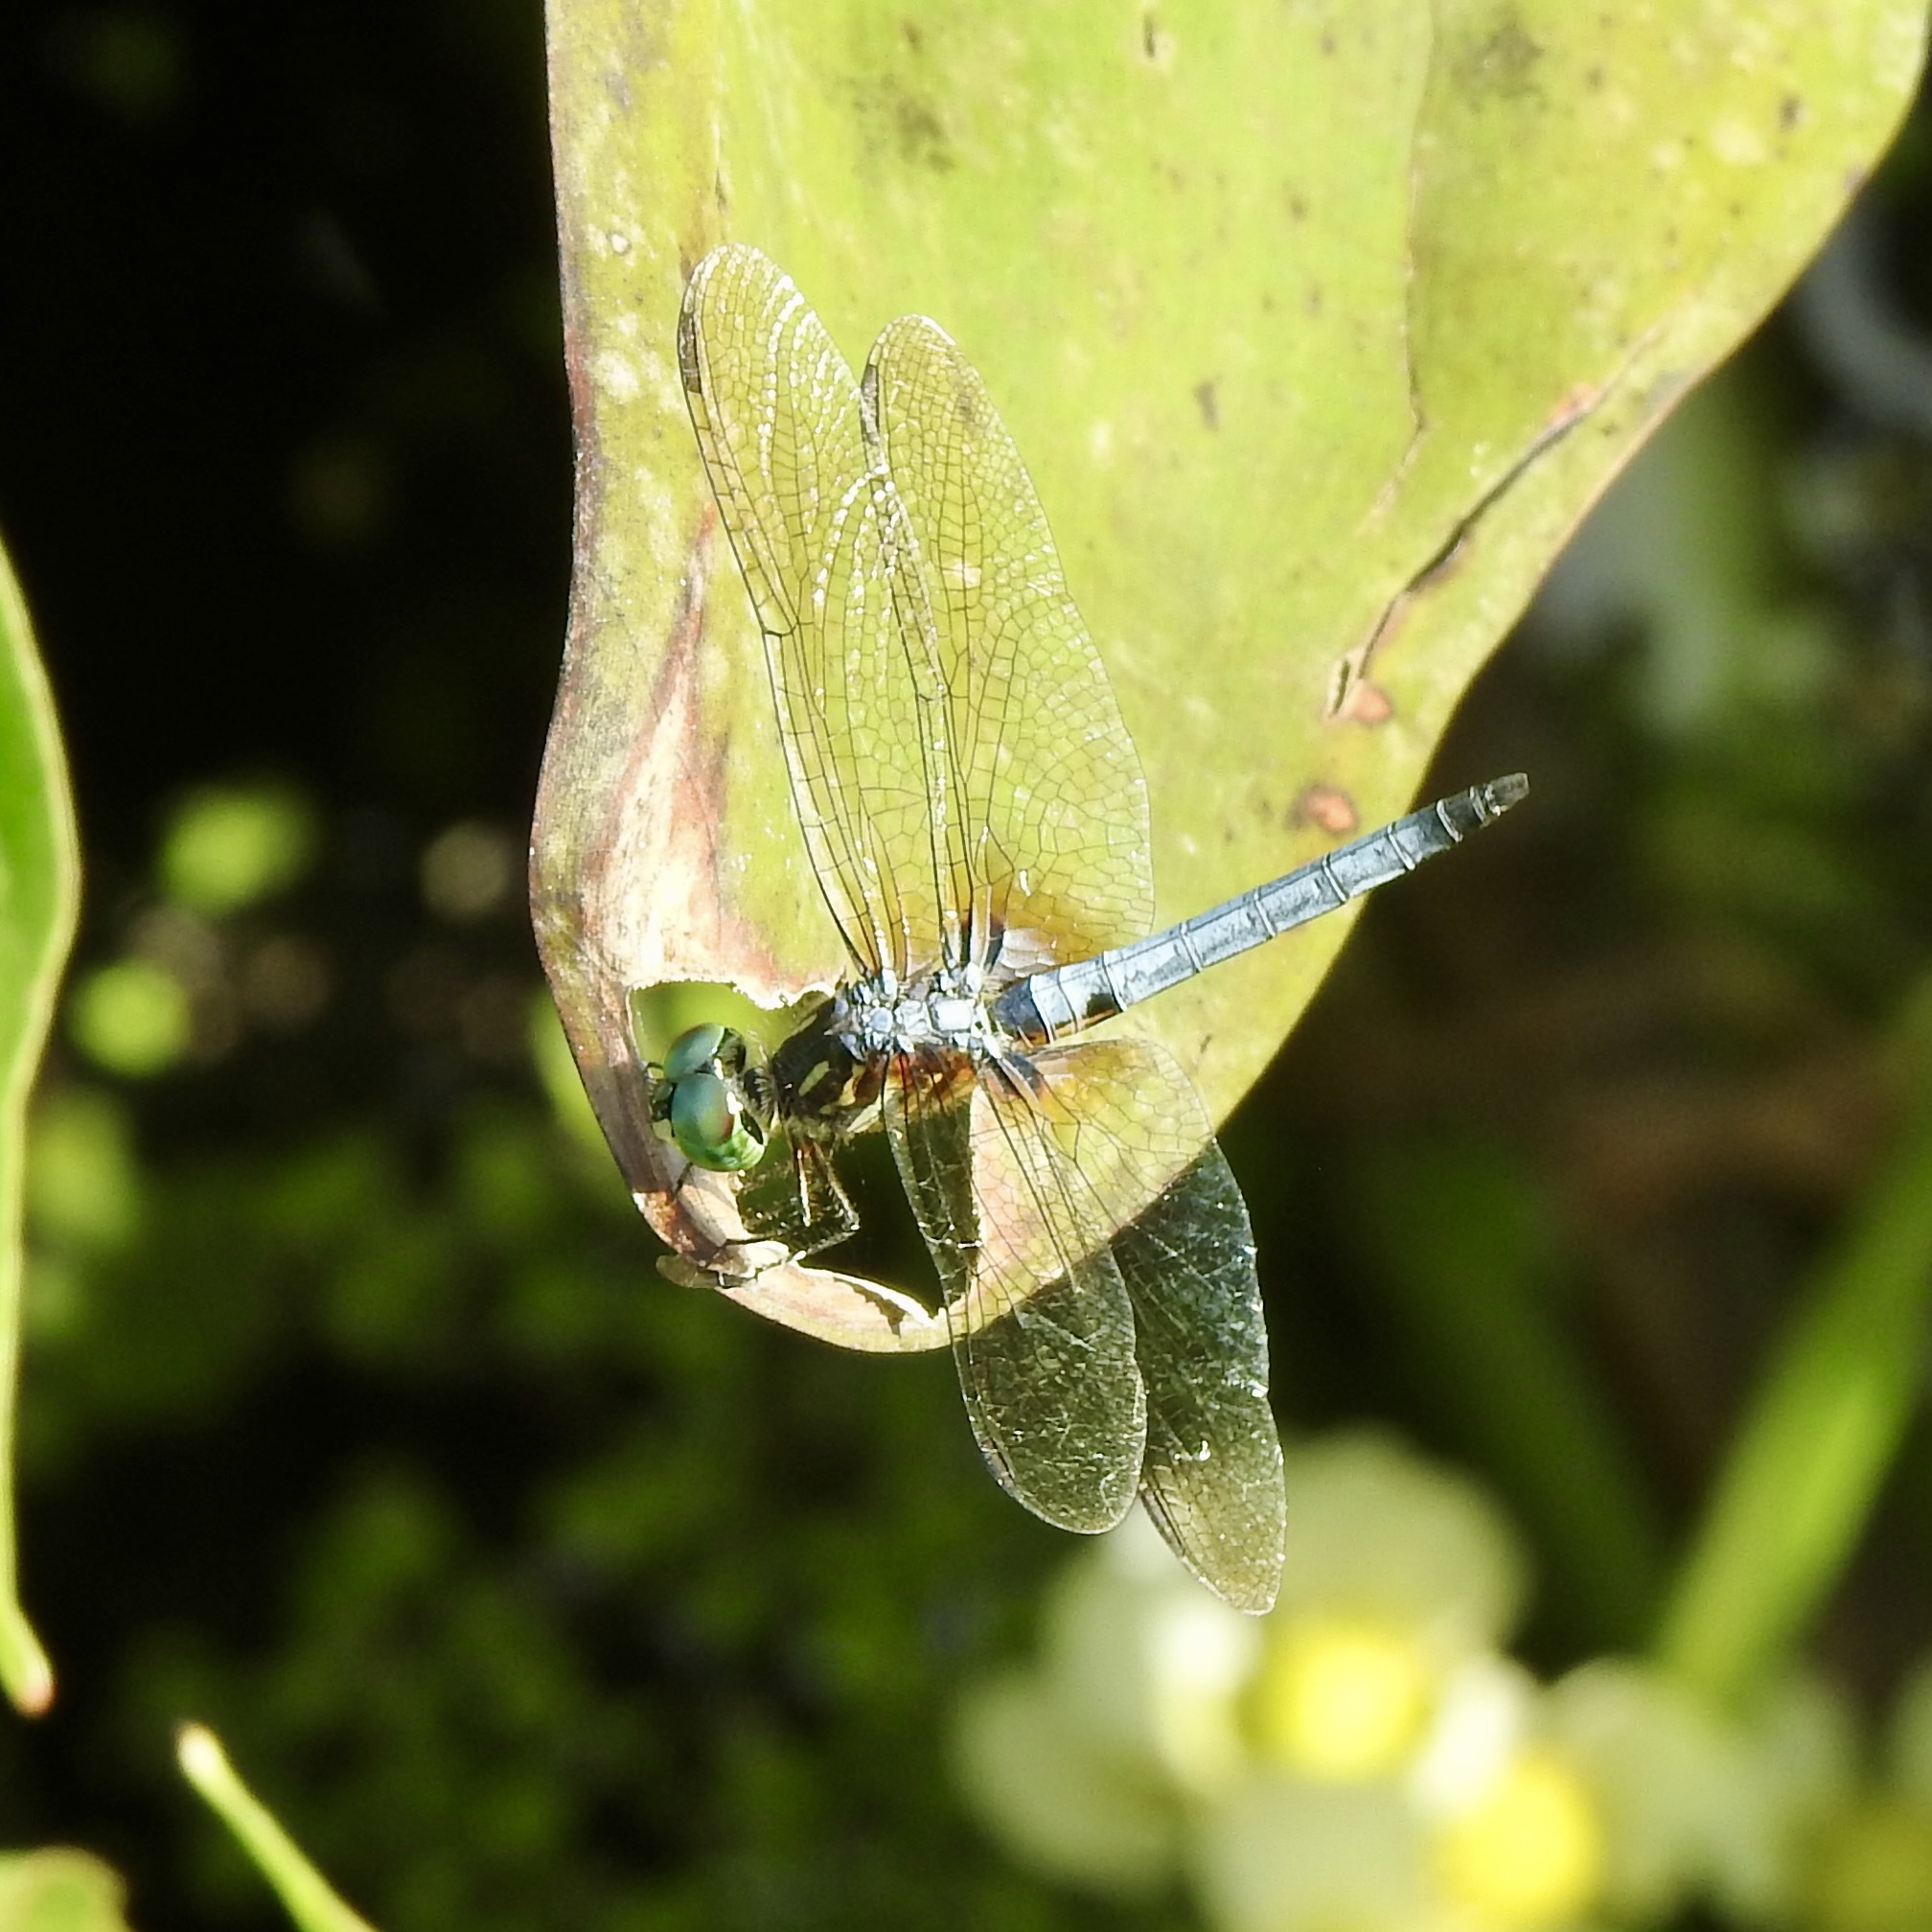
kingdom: Animalia
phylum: Arthropoda
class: Insecta
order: Odonata
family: Libellulidae
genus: Pachydiplax
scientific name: Pachydiplax longipennis
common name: Blue dasher
